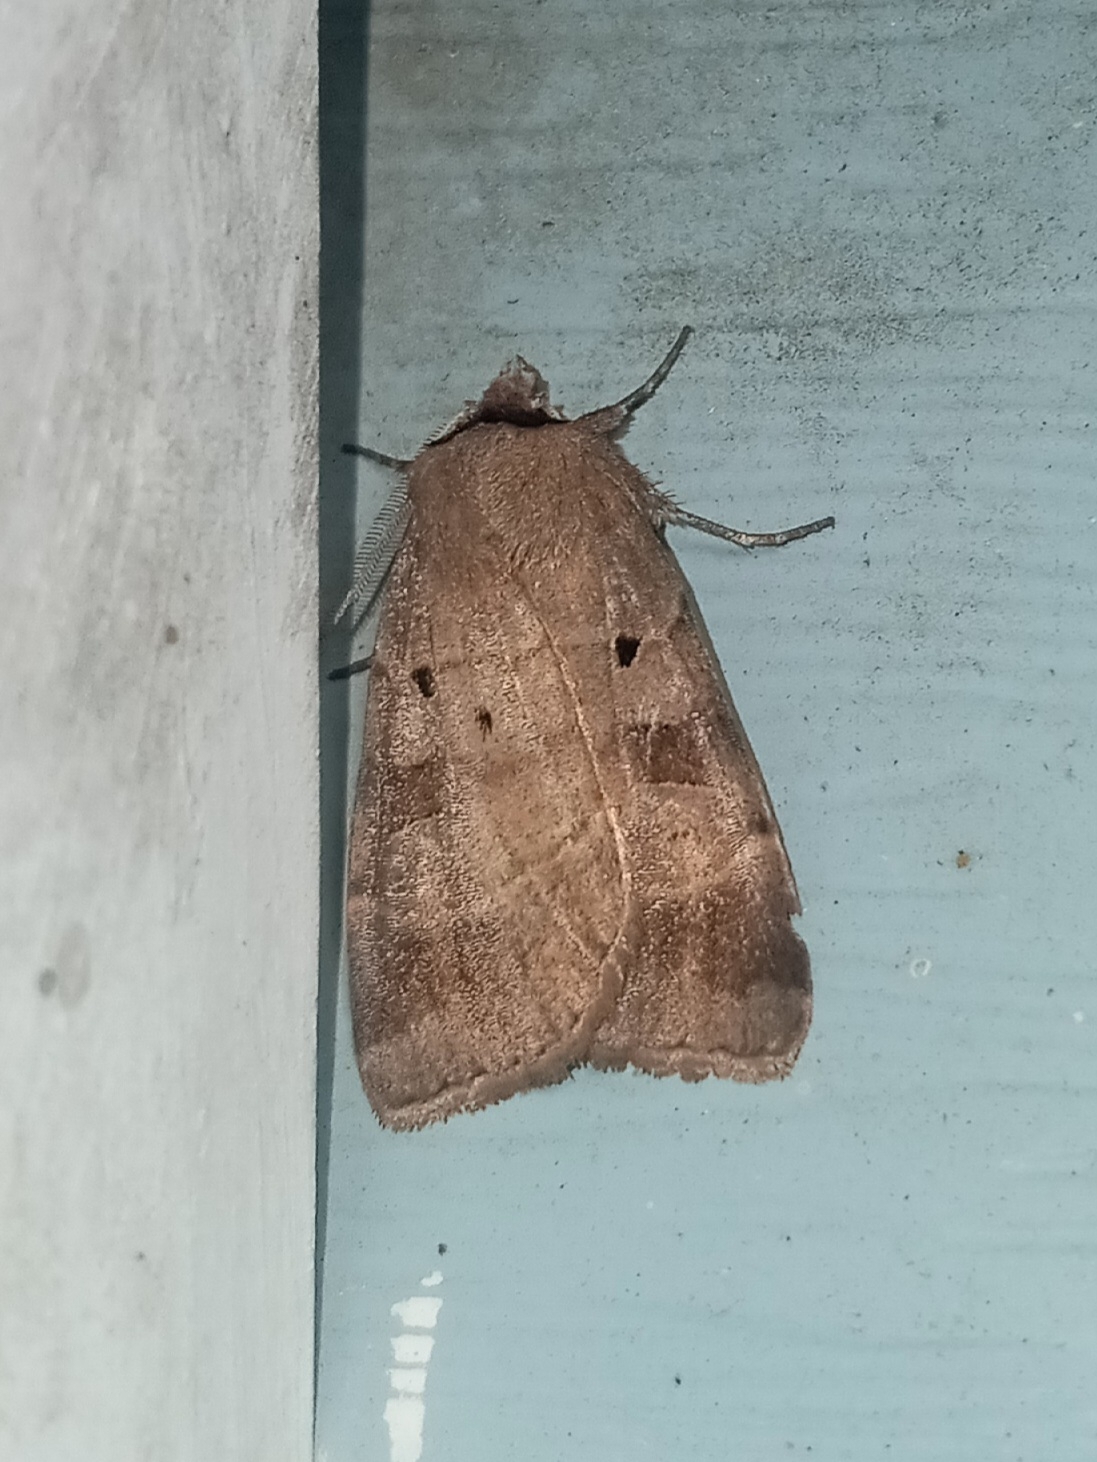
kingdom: Animalia
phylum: Arthropoda
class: Insecta
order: Lepidoptera
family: Noctuidae
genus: Agnorisma
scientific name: Agnorisma badinodis
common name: Pale-banded dart
